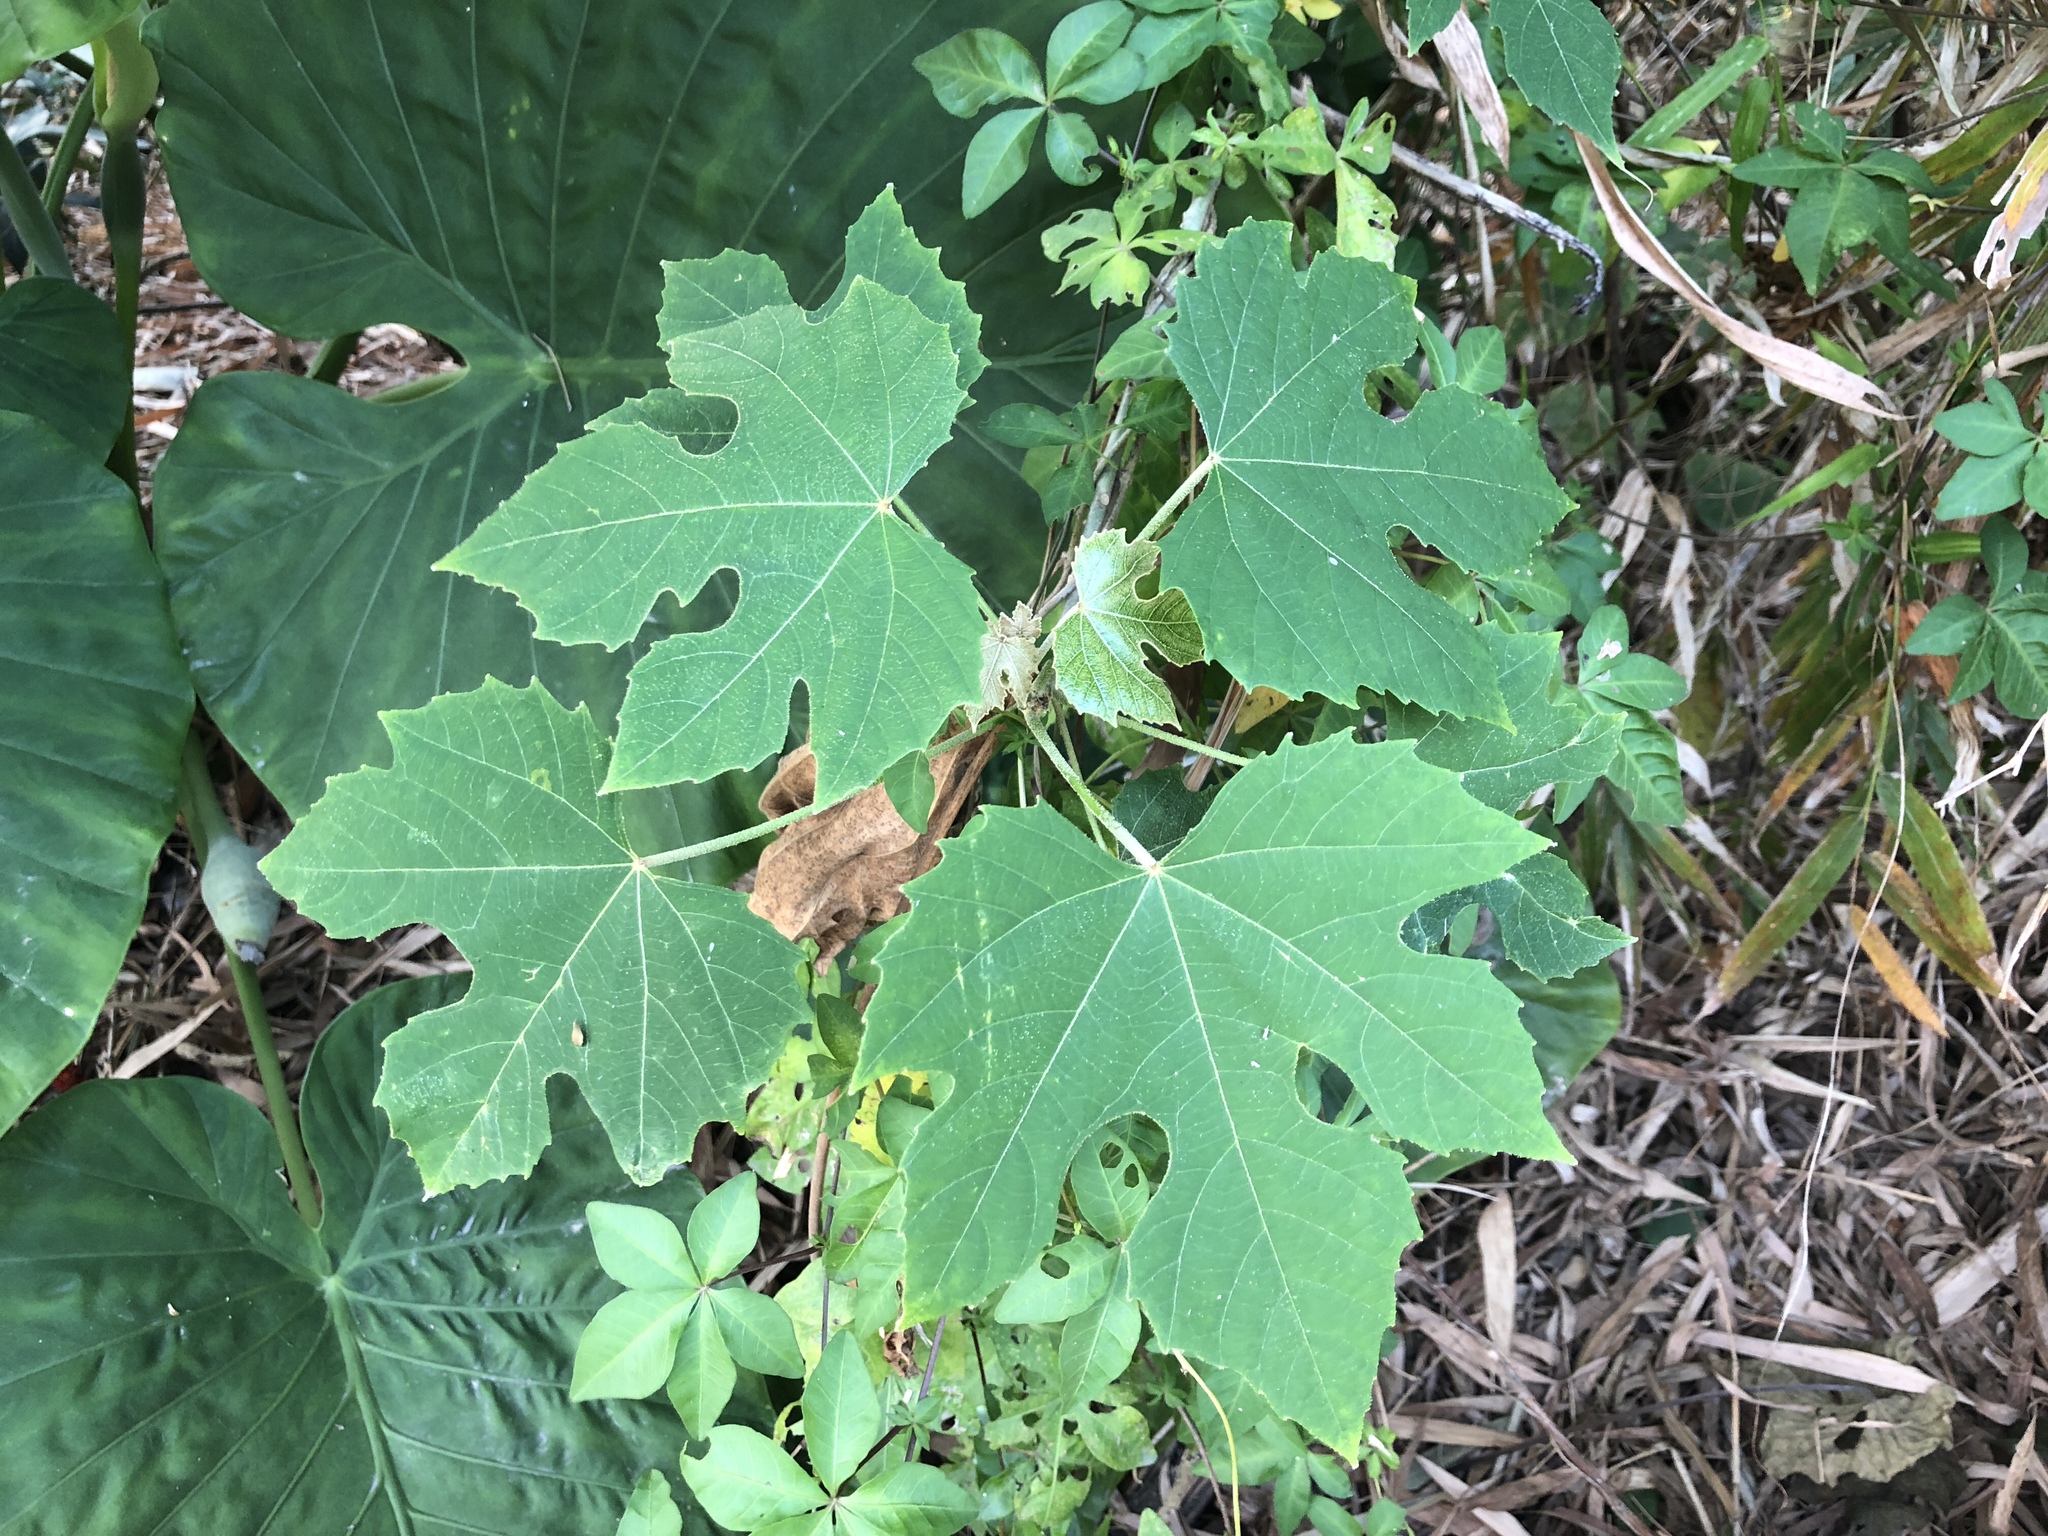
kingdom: Plantae
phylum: Tracheophyta
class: Magnoliopsida
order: Malpighiales
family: Euphorbiaceae
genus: Melanolepis
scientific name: Melanolepis multiglandulosa
